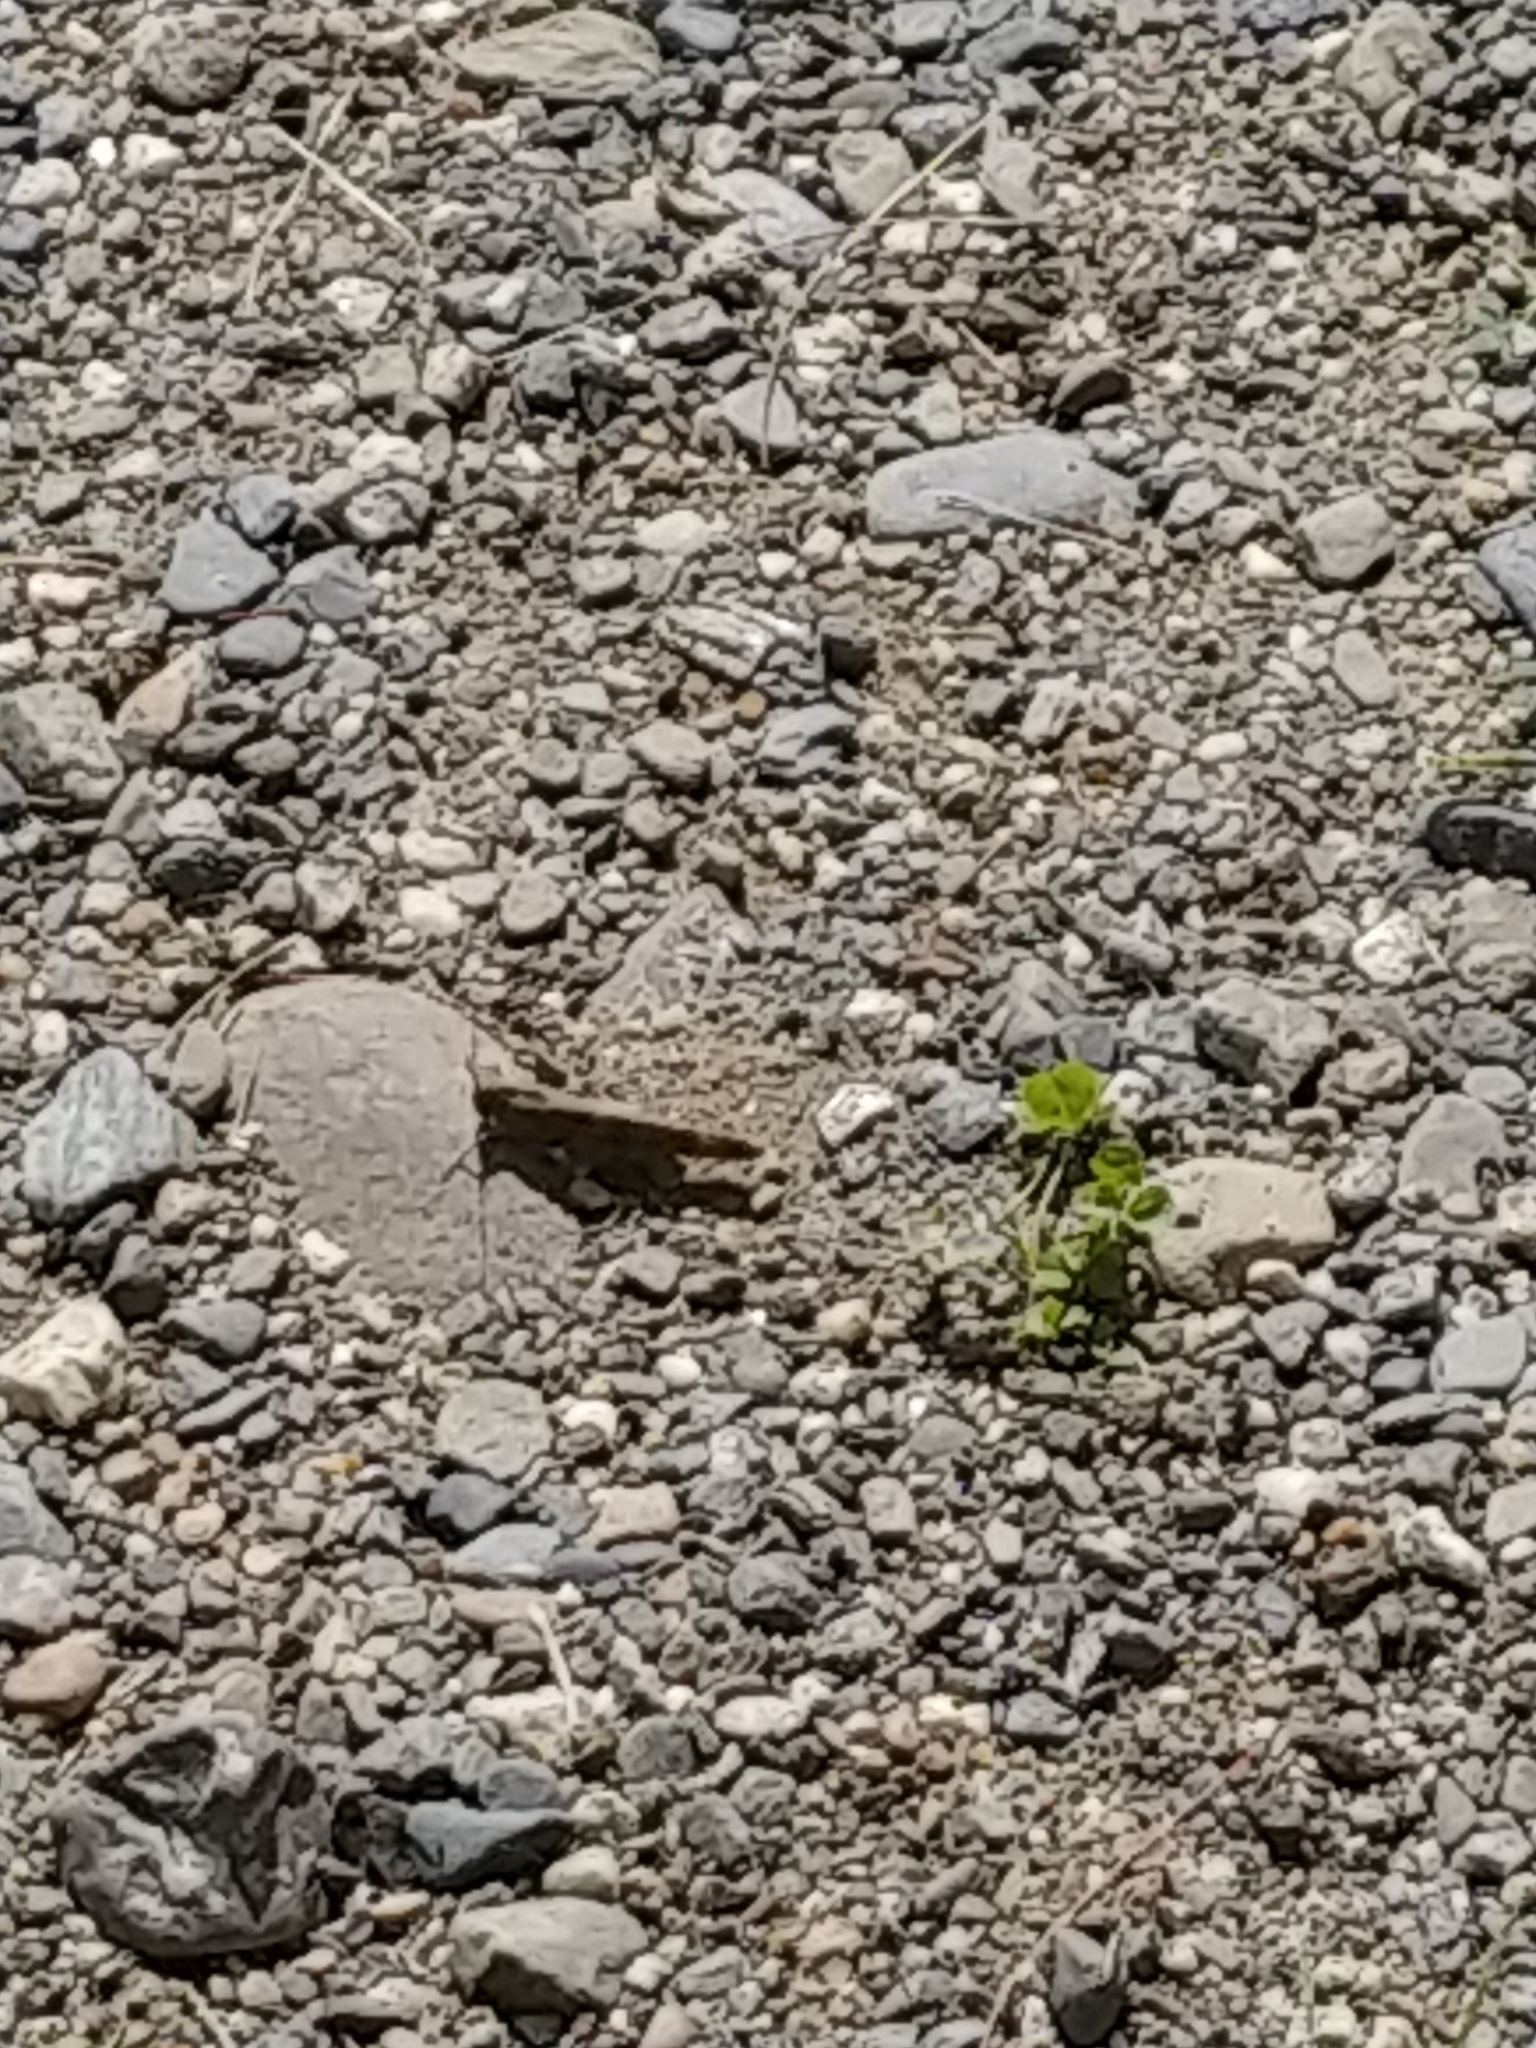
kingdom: Animalia
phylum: Arthropoda
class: Insecta
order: Orthoptera
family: Acrididae
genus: Dissosteira
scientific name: Dissosteira carolina
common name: Carolina grasshopper
